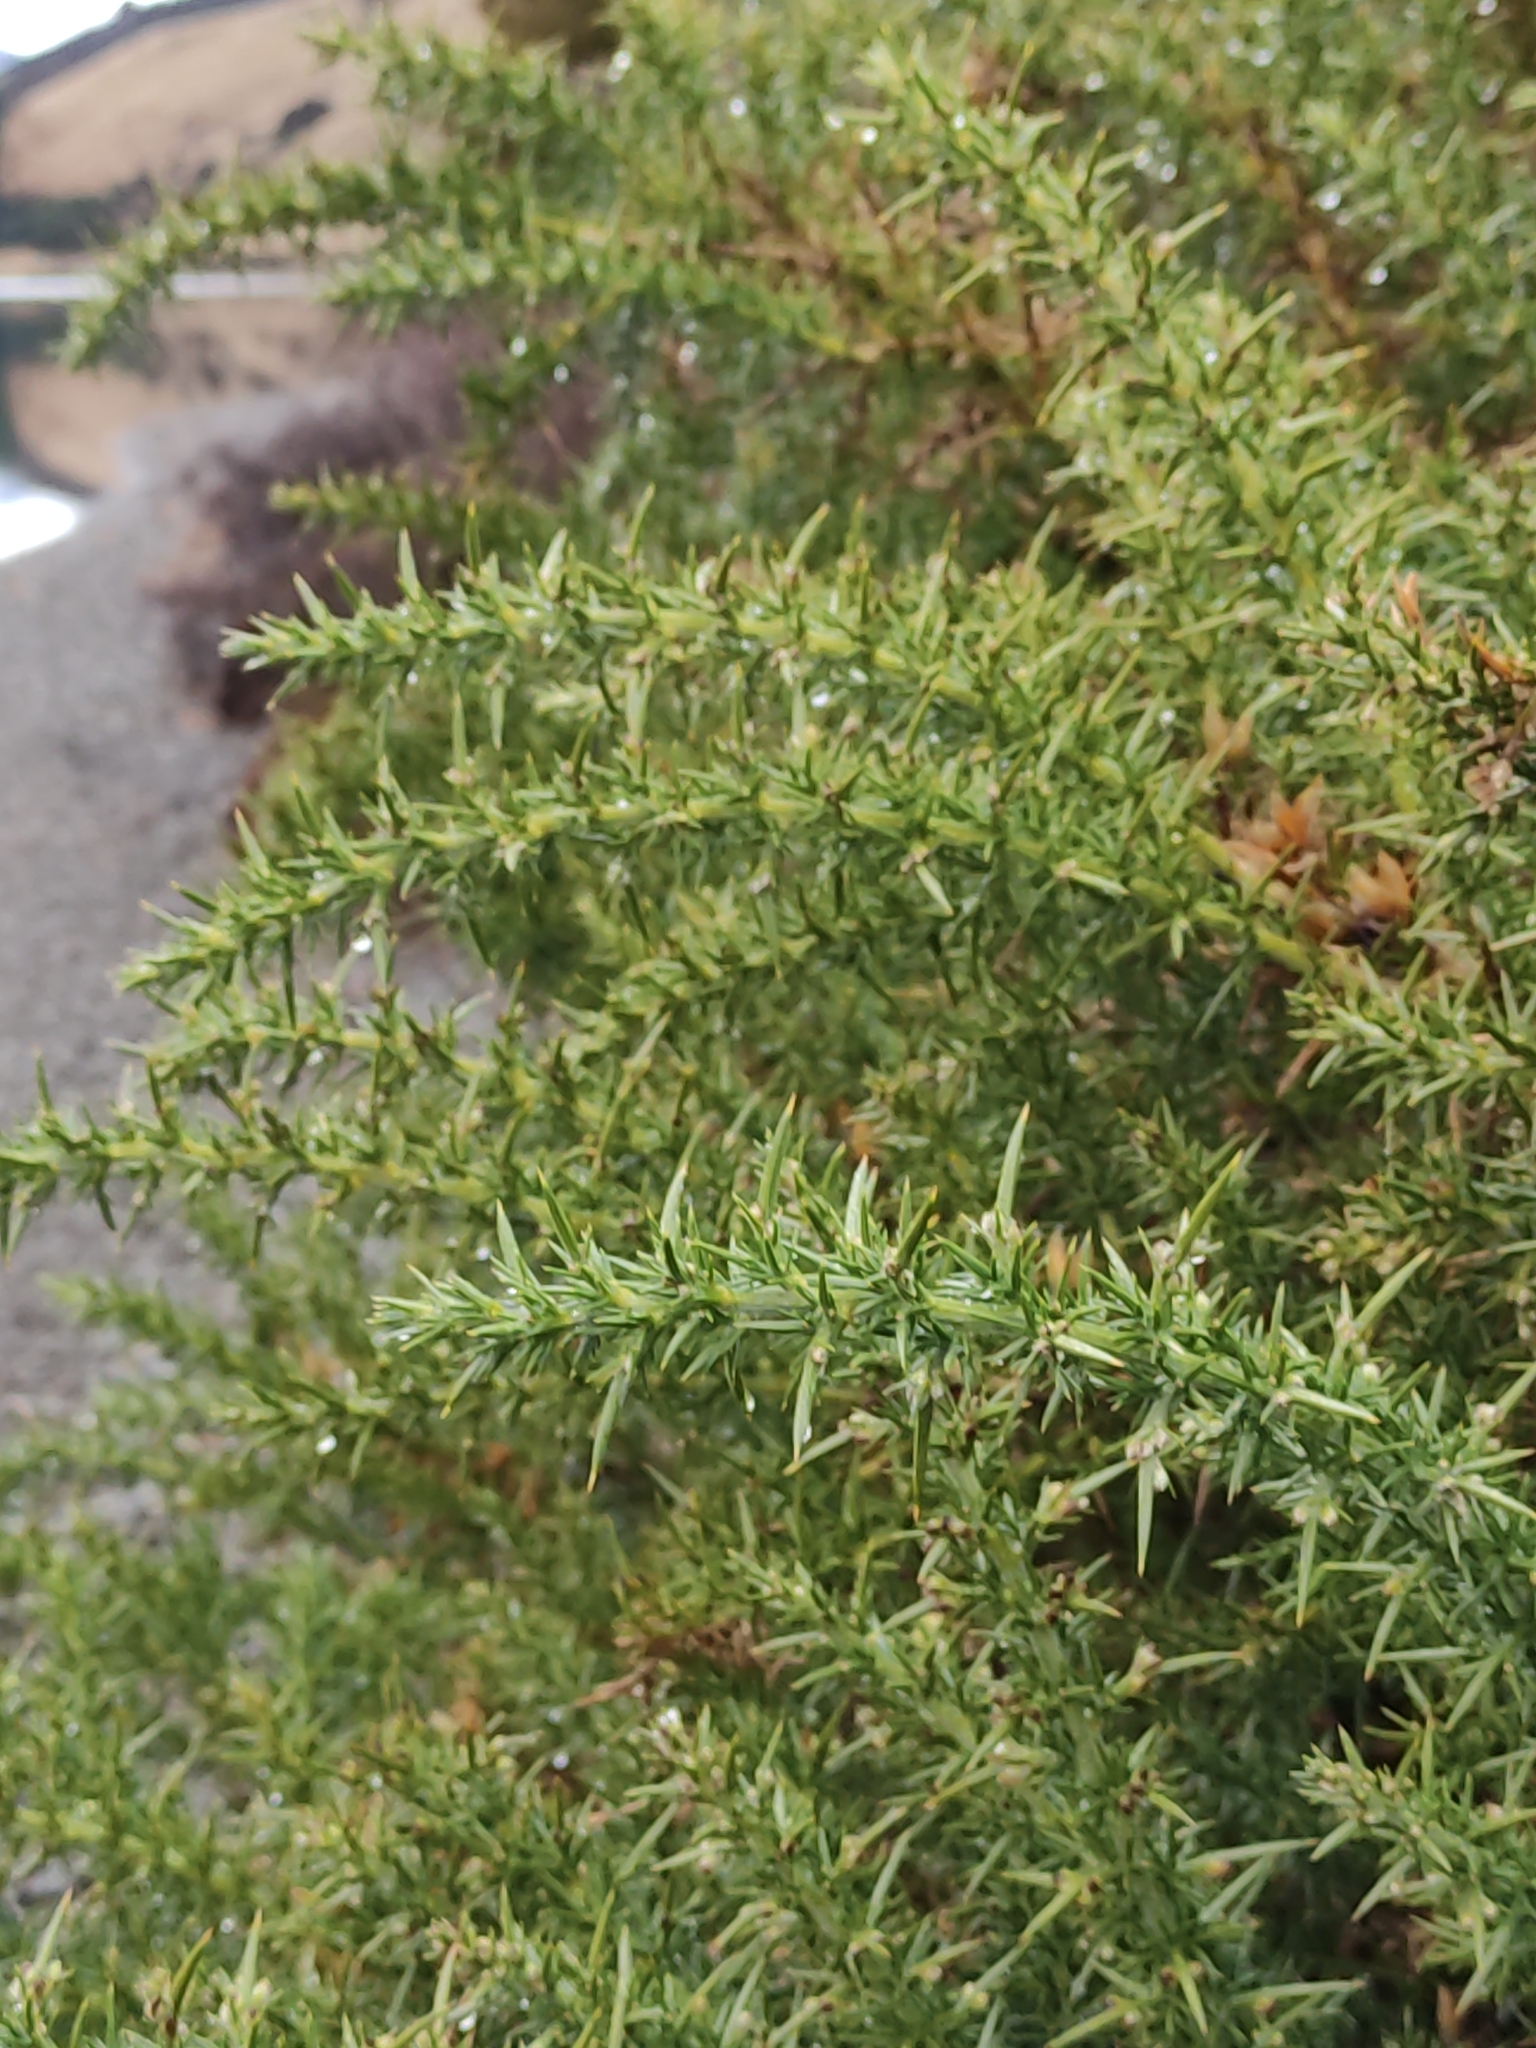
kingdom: Plantae
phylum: Tracheophyta
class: Magnoliopsida
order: Fabales
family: Fabaceae
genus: Ulex
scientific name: Ulex europaeus
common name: Common gorse
